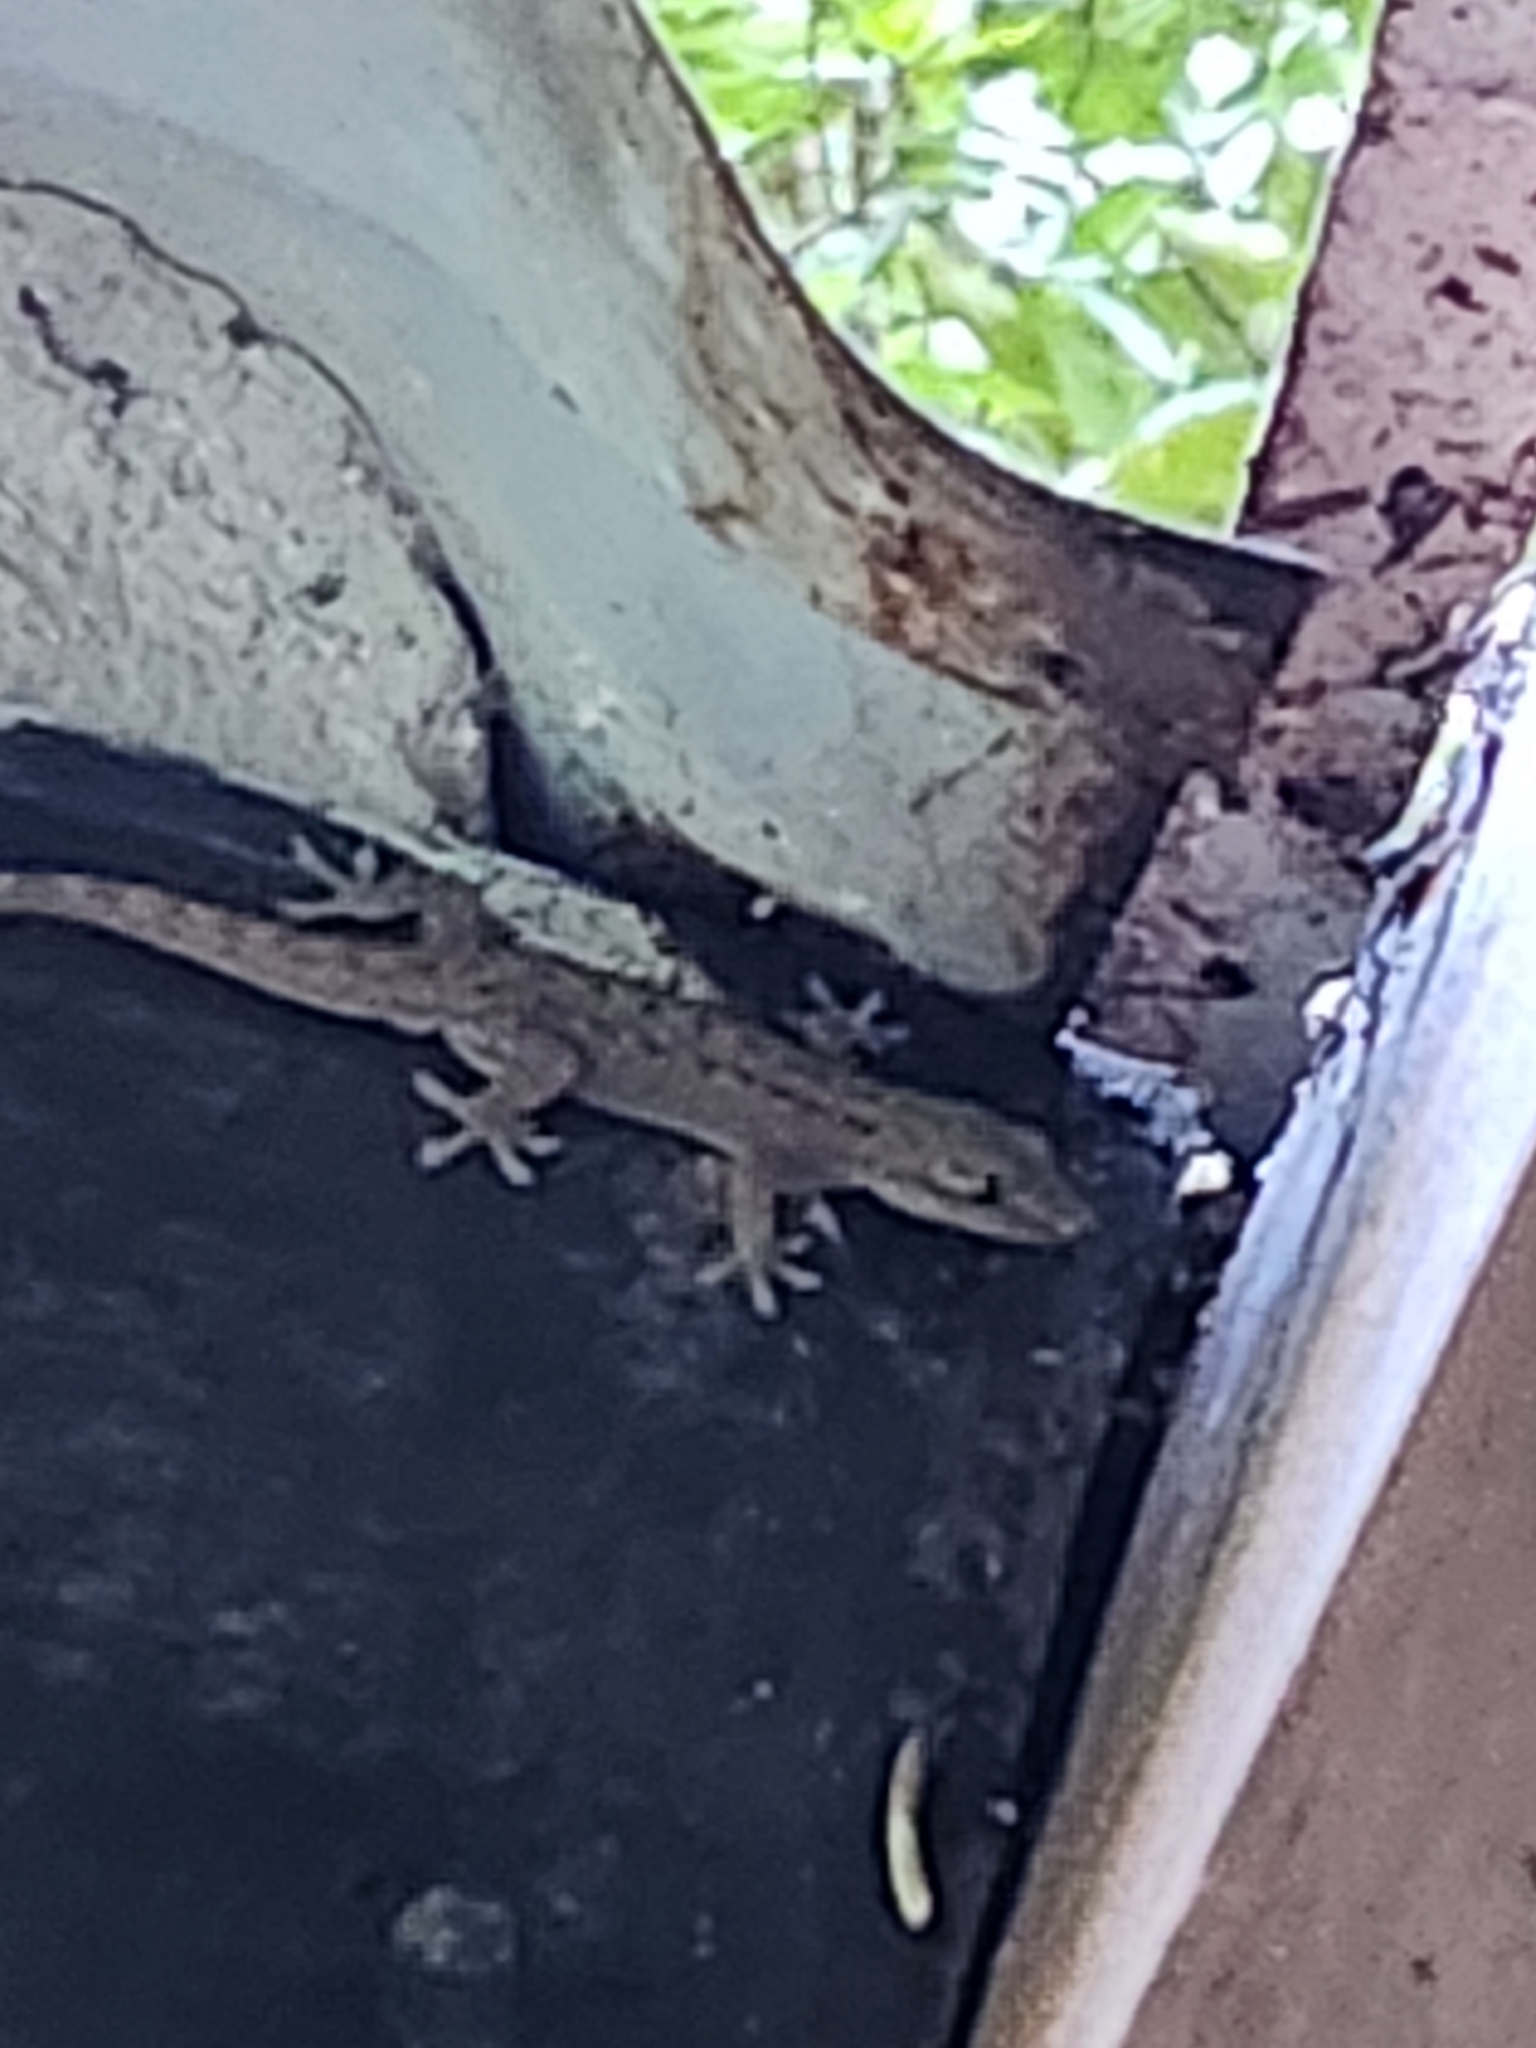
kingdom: Animalia
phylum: Chordata
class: Squamata
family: Gekkonidae
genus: Hemidactylus
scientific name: Hemidactylus frenatus
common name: Common house gecko
